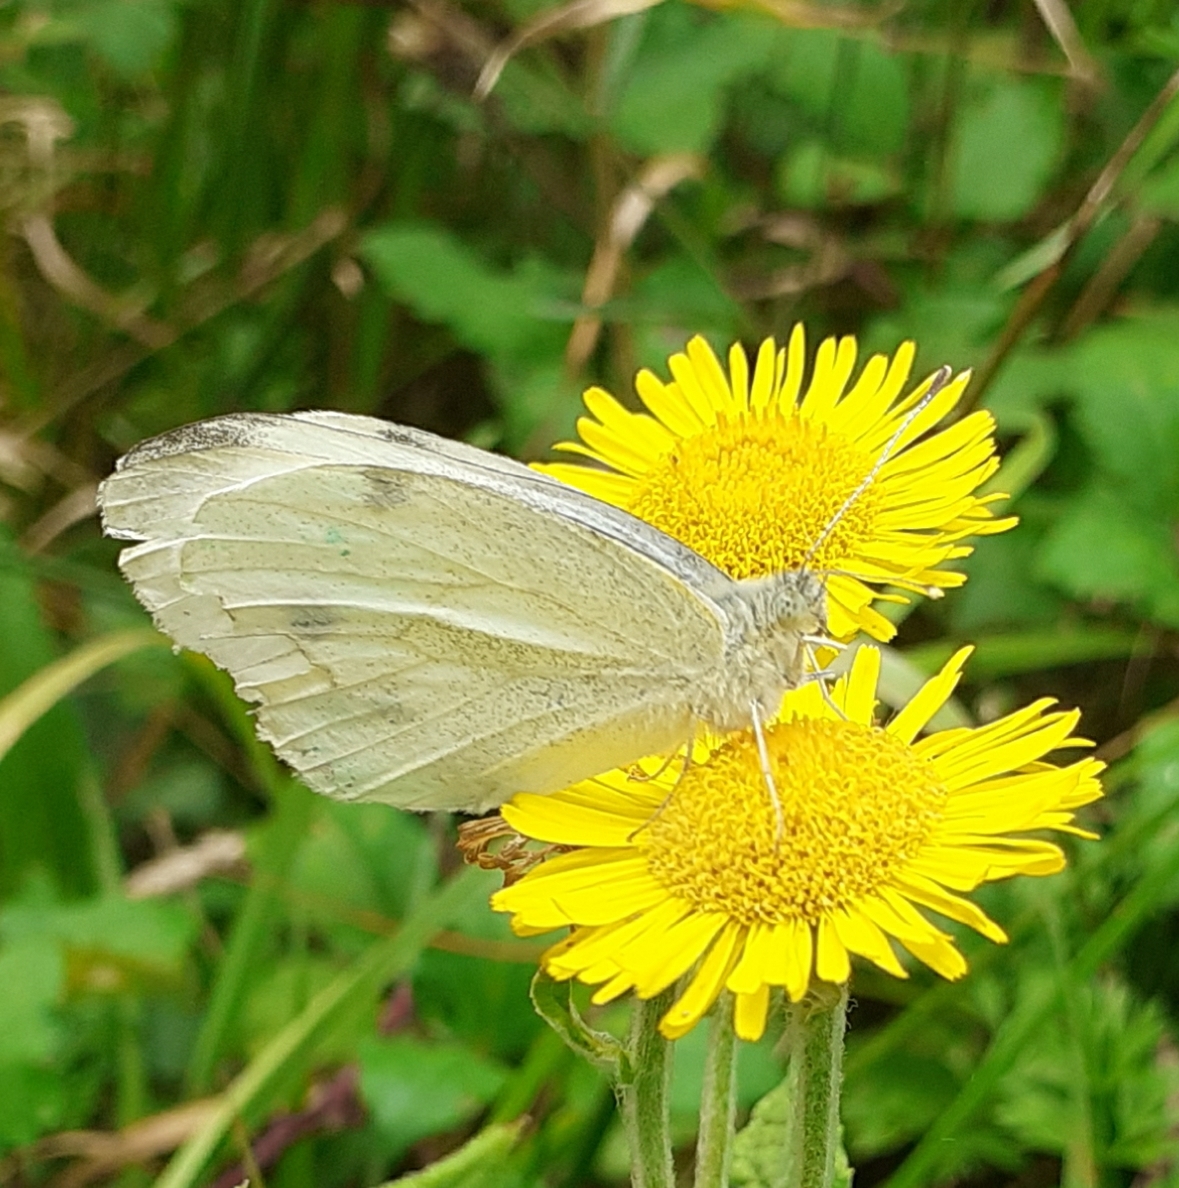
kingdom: Animalia
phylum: Arthropoda
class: Insecta
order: Lepidoptera
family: Pieridae
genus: Pieris
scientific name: Pieris rapae
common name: Small white
